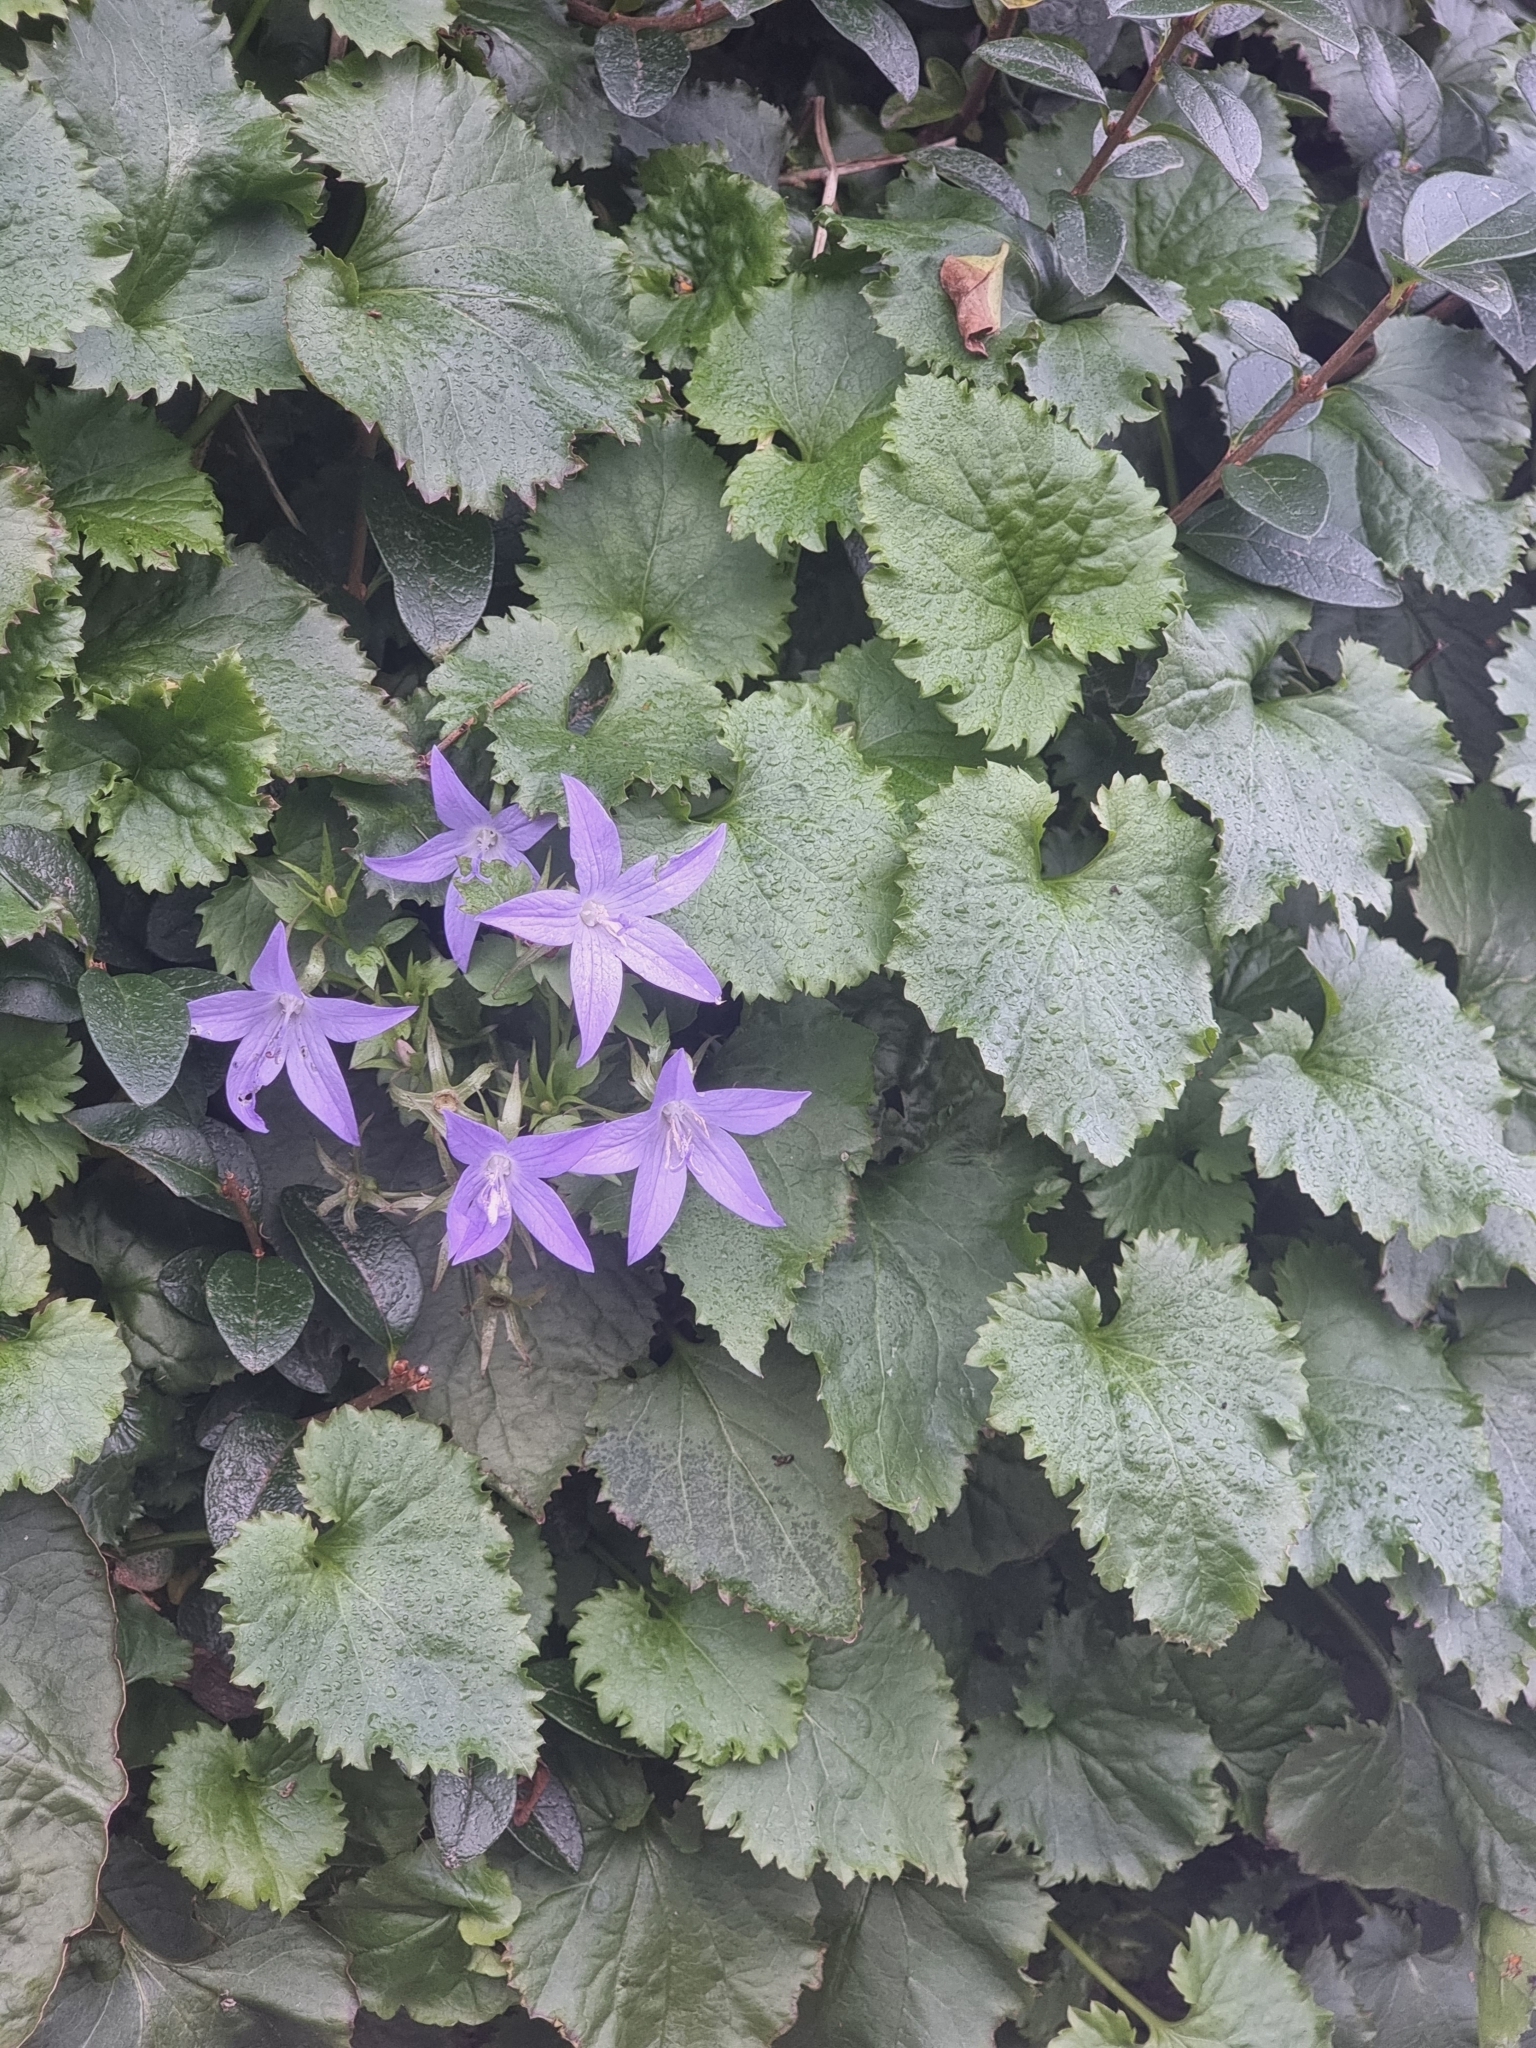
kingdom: Plantae
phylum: Tracheophyta
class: Magnoliopsida
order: Asterales
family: Campanulaceae
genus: Campanula
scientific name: Campanula poscharskyana
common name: Trailing bellflower
